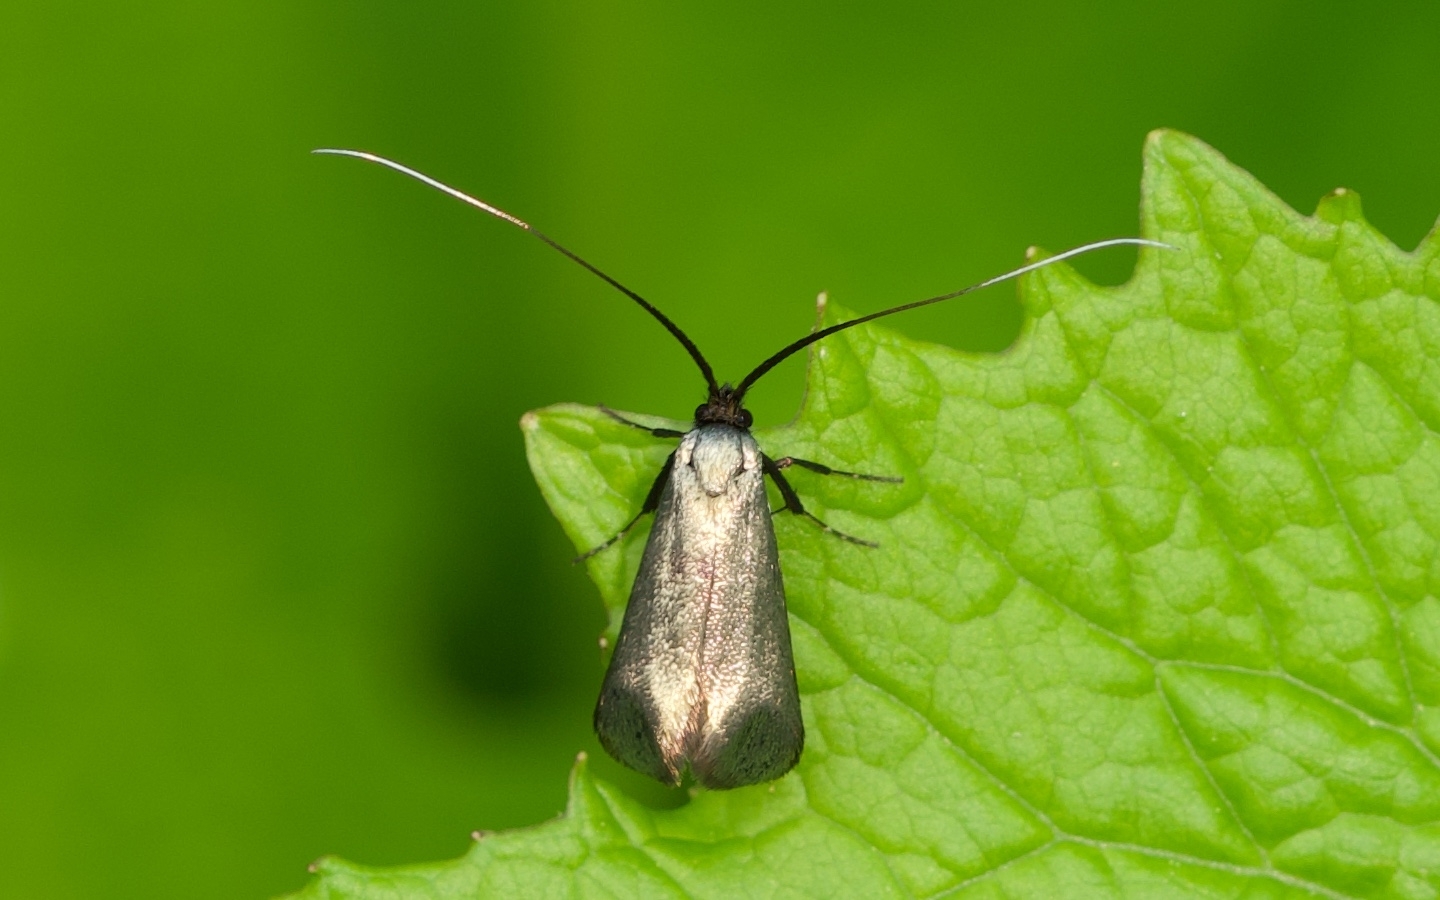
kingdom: Animalia
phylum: Arthropoda
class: Insecta
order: Lepidoptera
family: Adelidae
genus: Adela
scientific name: Adela viridella
